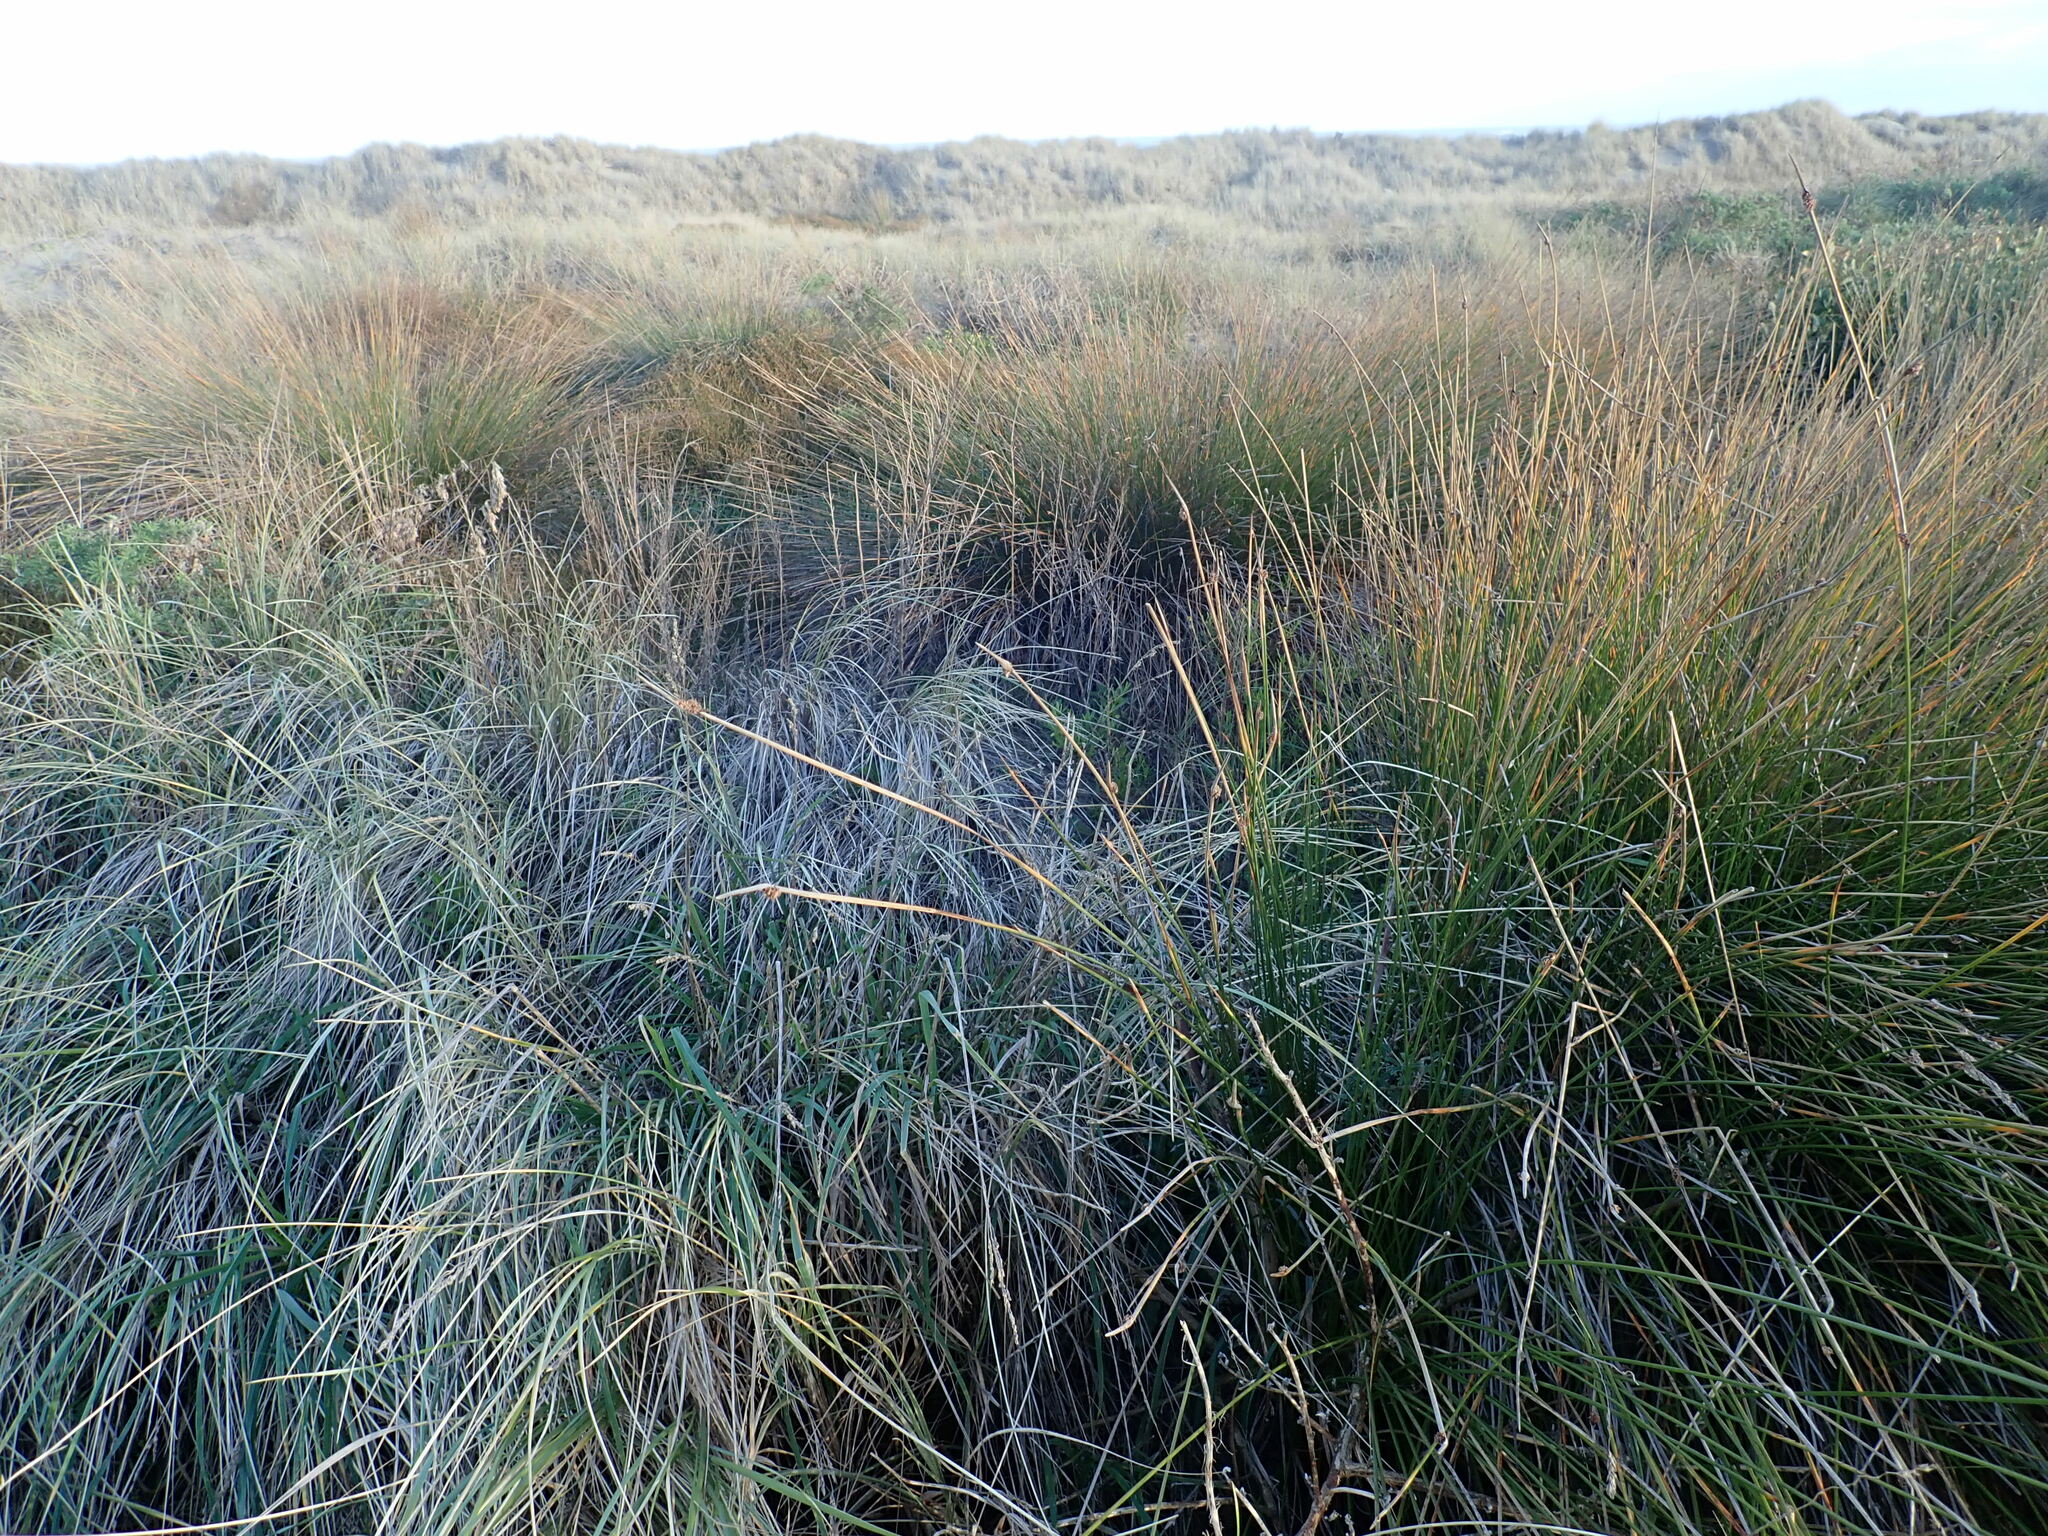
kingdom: Plantae
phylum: Tracheophyta
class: Liliopsida
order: Poales
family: Cyperaceae
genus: Ficinia
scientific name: Ficinia nodosa
